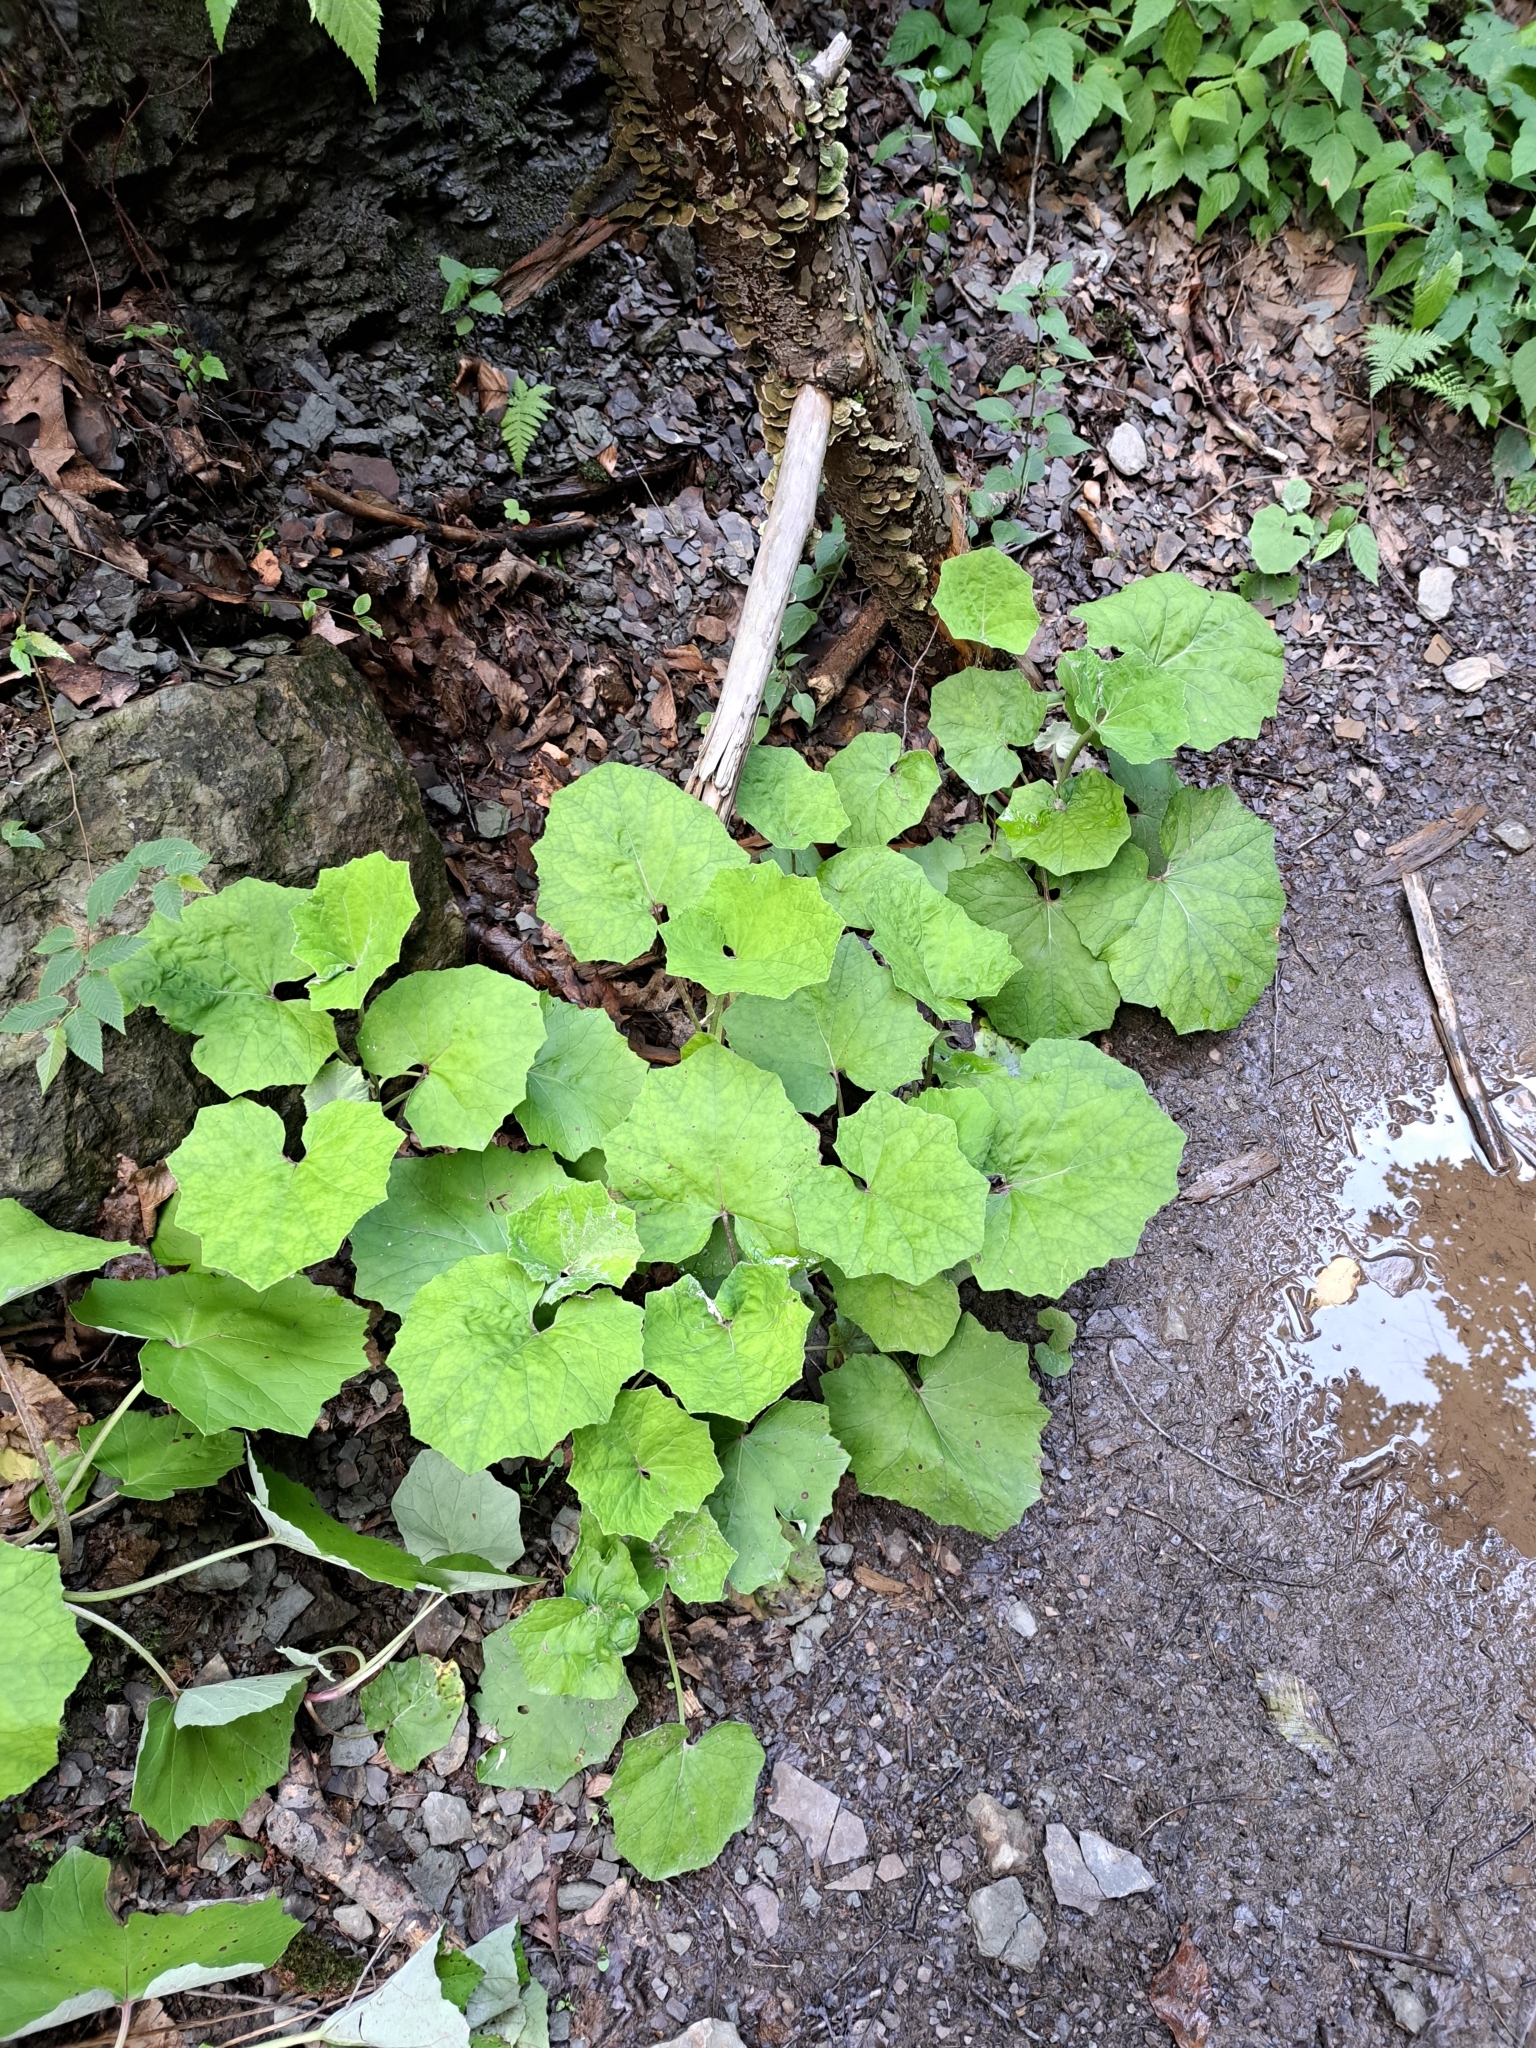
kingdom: Plantae
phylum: Tracheophyta
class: Magnoliopsida
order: Asterales
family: Asteraceae
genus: Tussilago
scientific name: Tussilago farfara
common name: Coltsfoot
